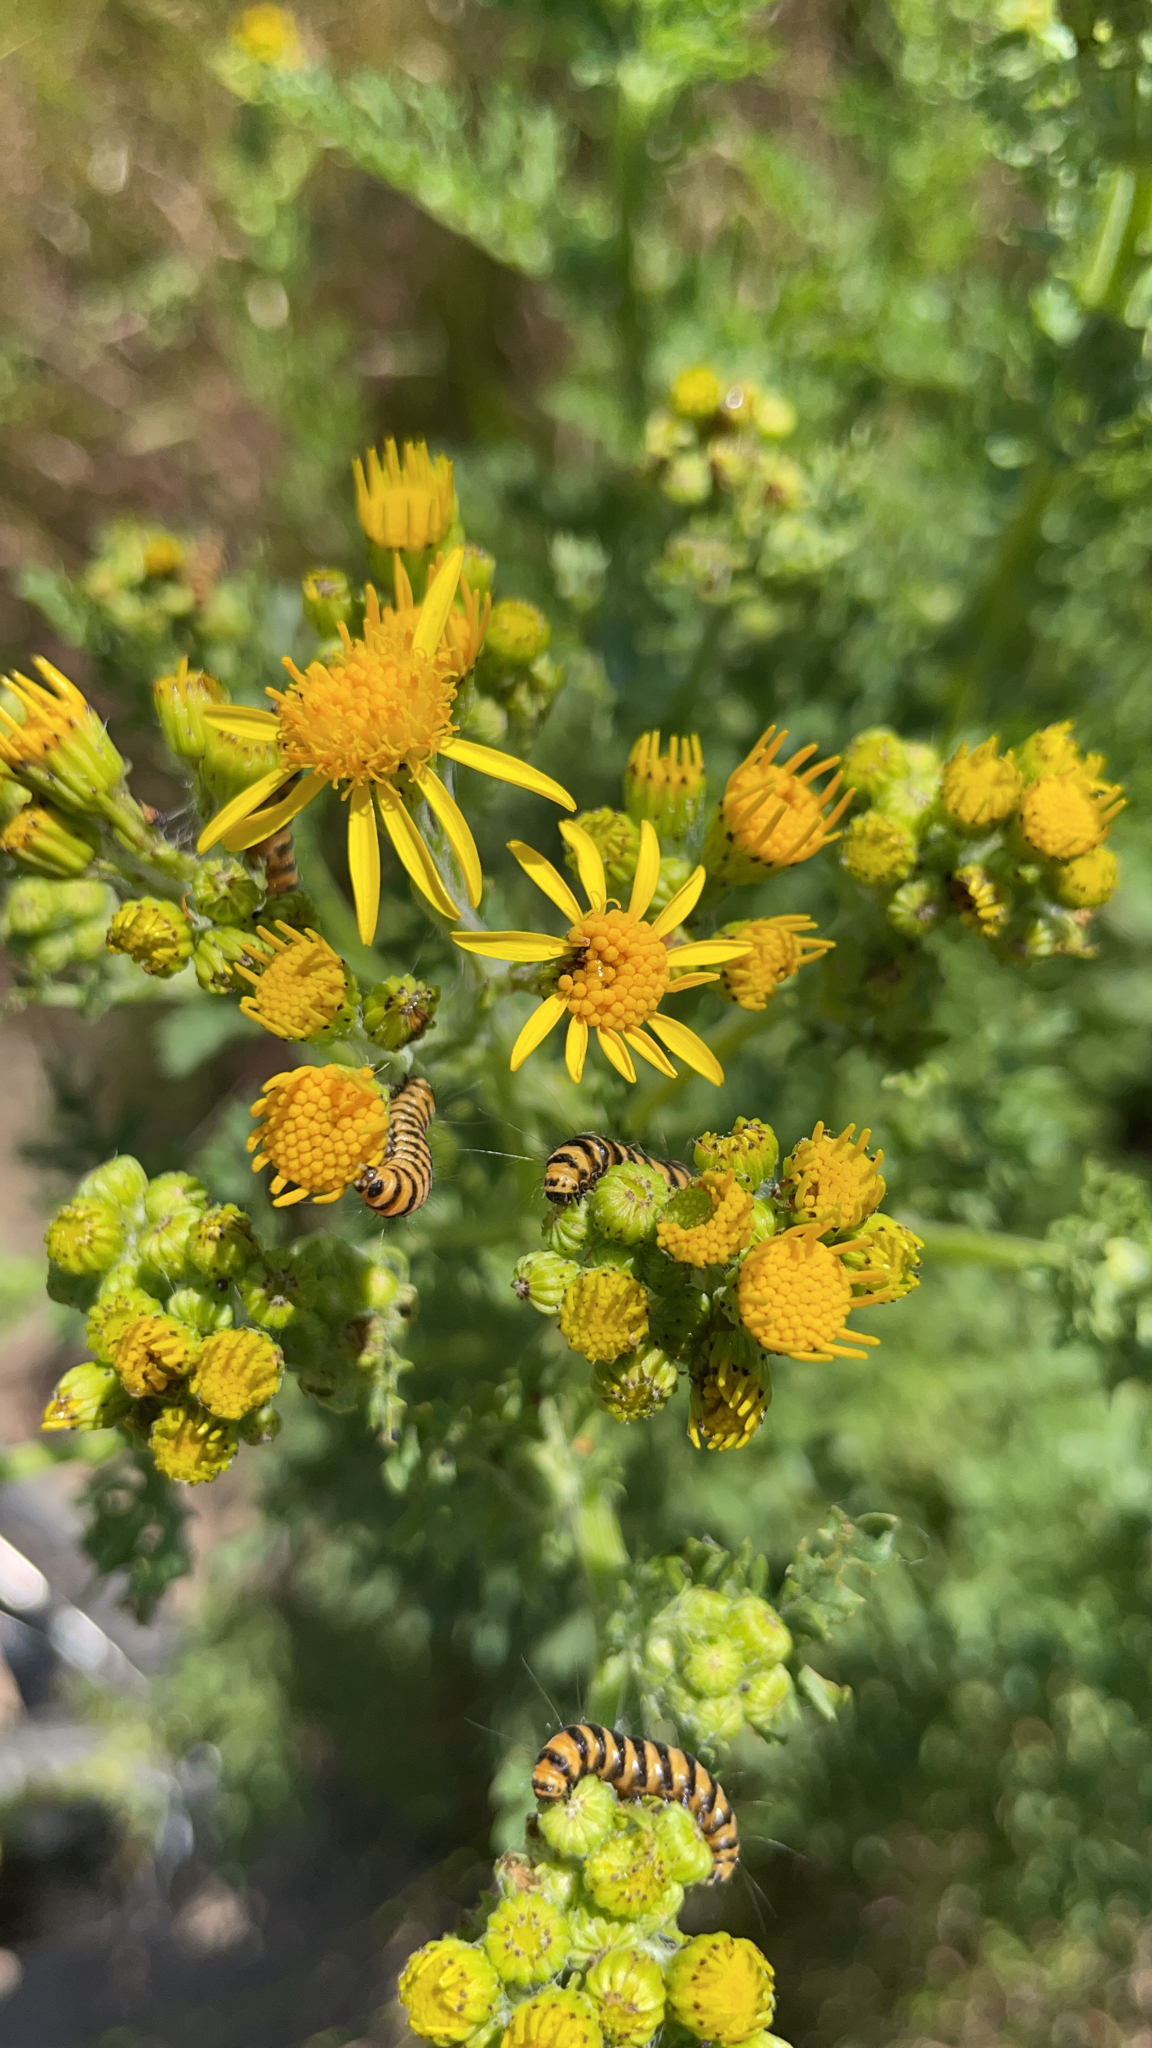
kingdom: Plantae
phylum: Tracheophyta
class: Magnoliopsida
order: Asterales
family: Asteraceae
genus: Jacobaea
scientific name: Jacobaea vulgaris
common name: Stinking willie
